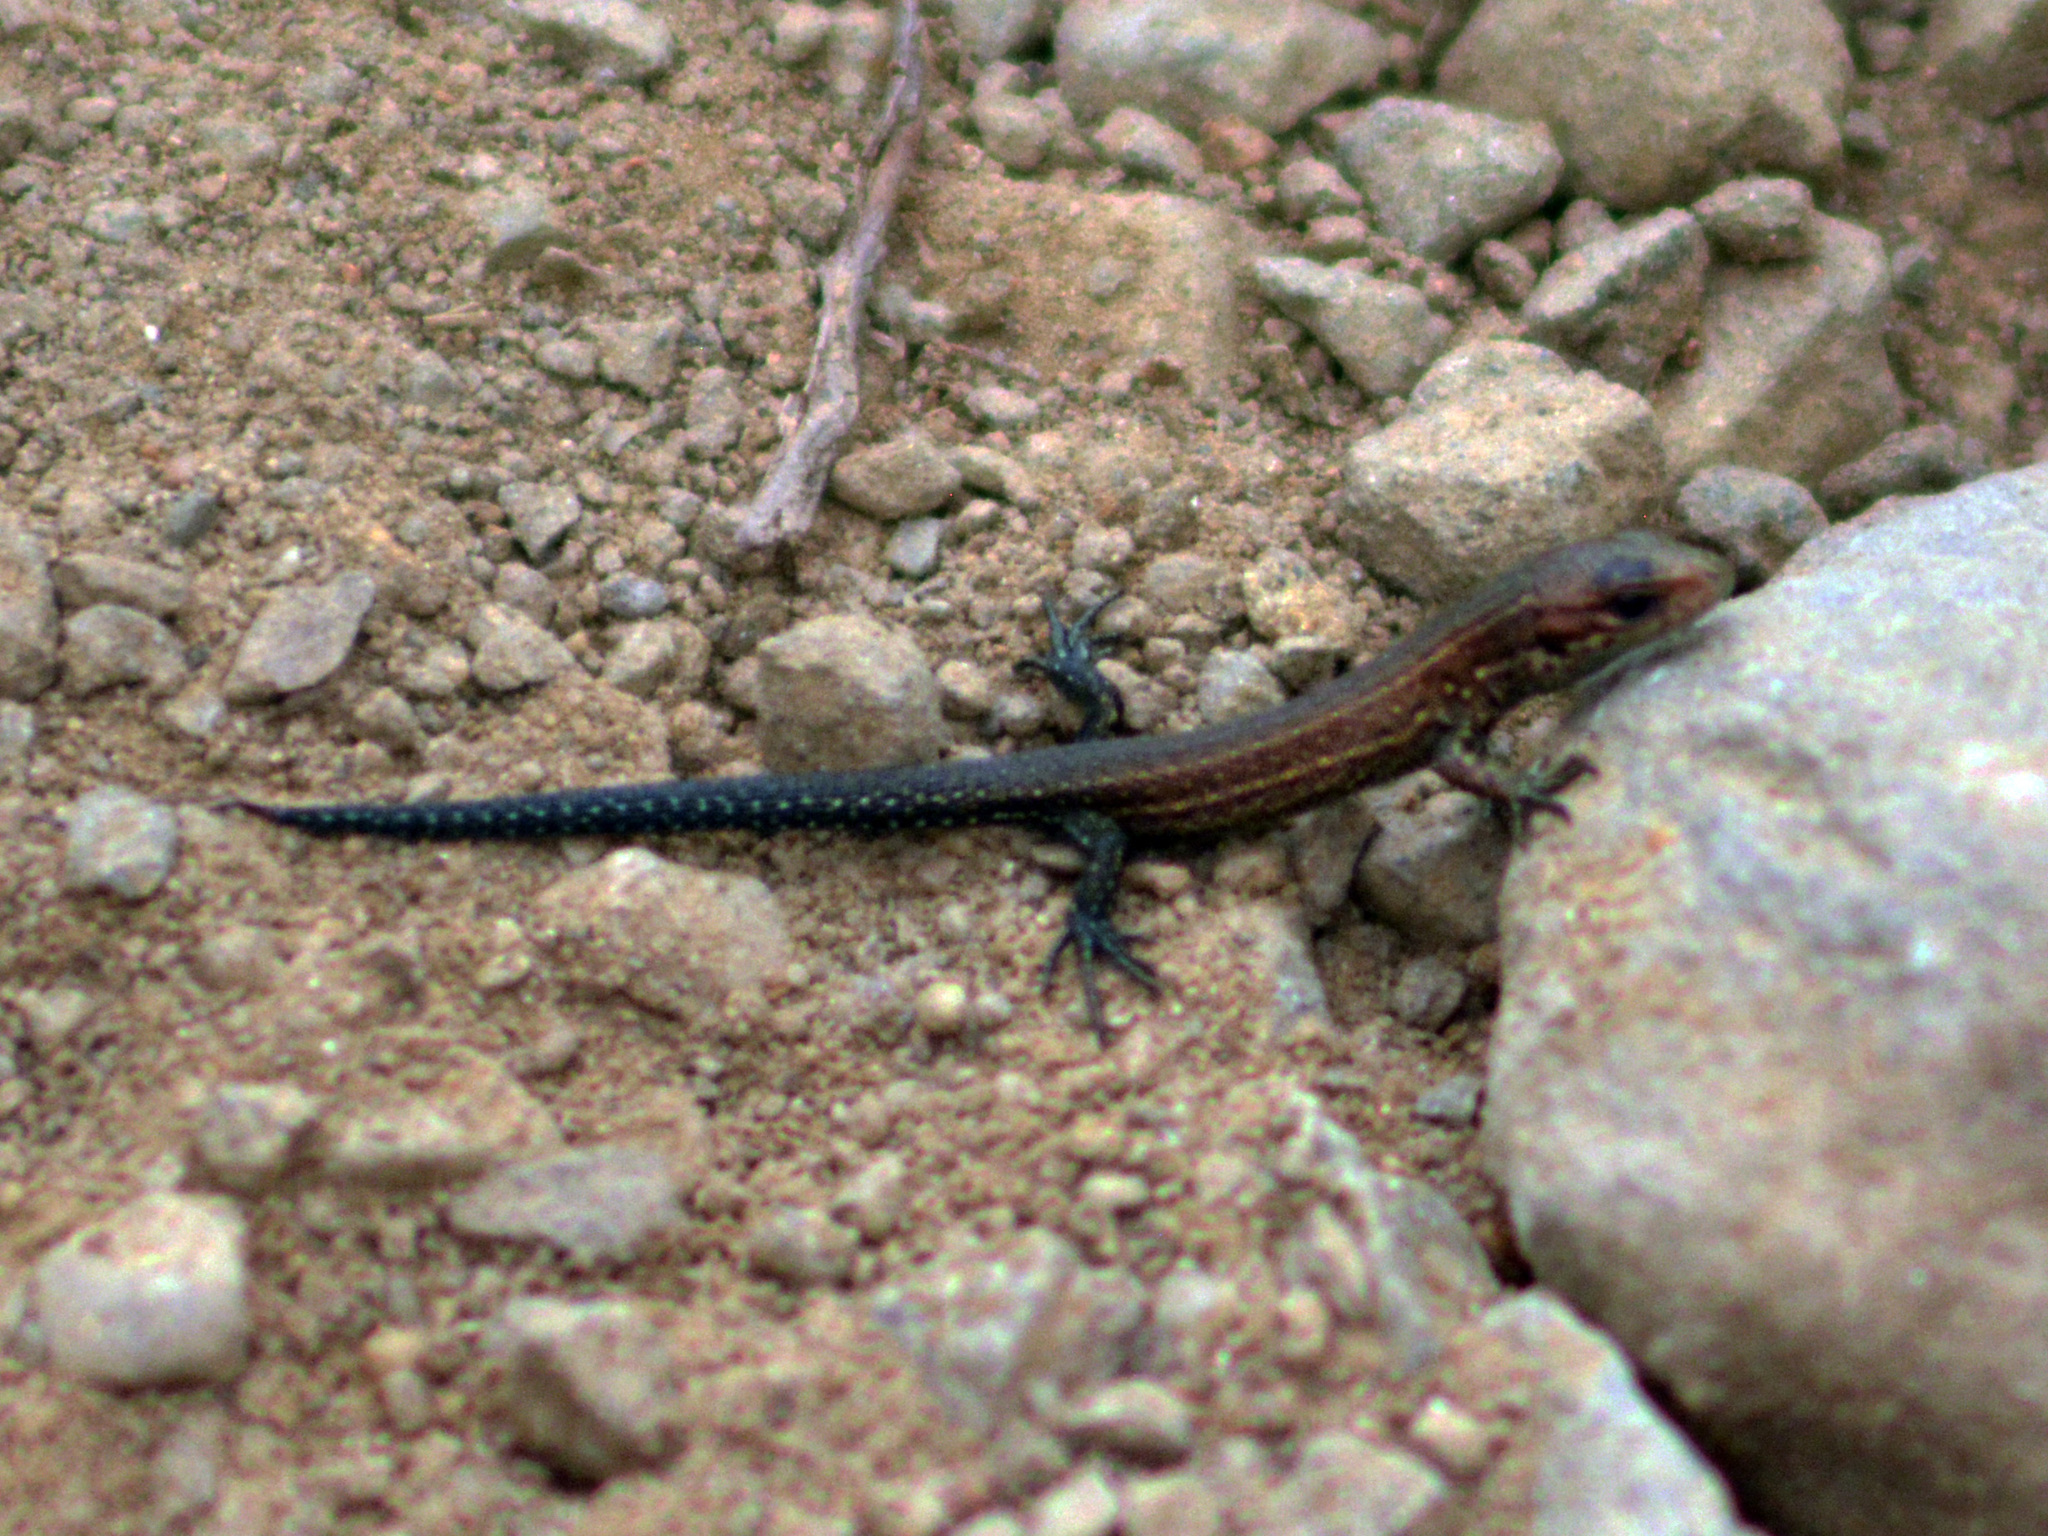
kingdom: Animalia
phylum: Chordata
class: Squamata
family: Lacertidae
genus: Zootoca
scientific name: Zootoca vivipara
